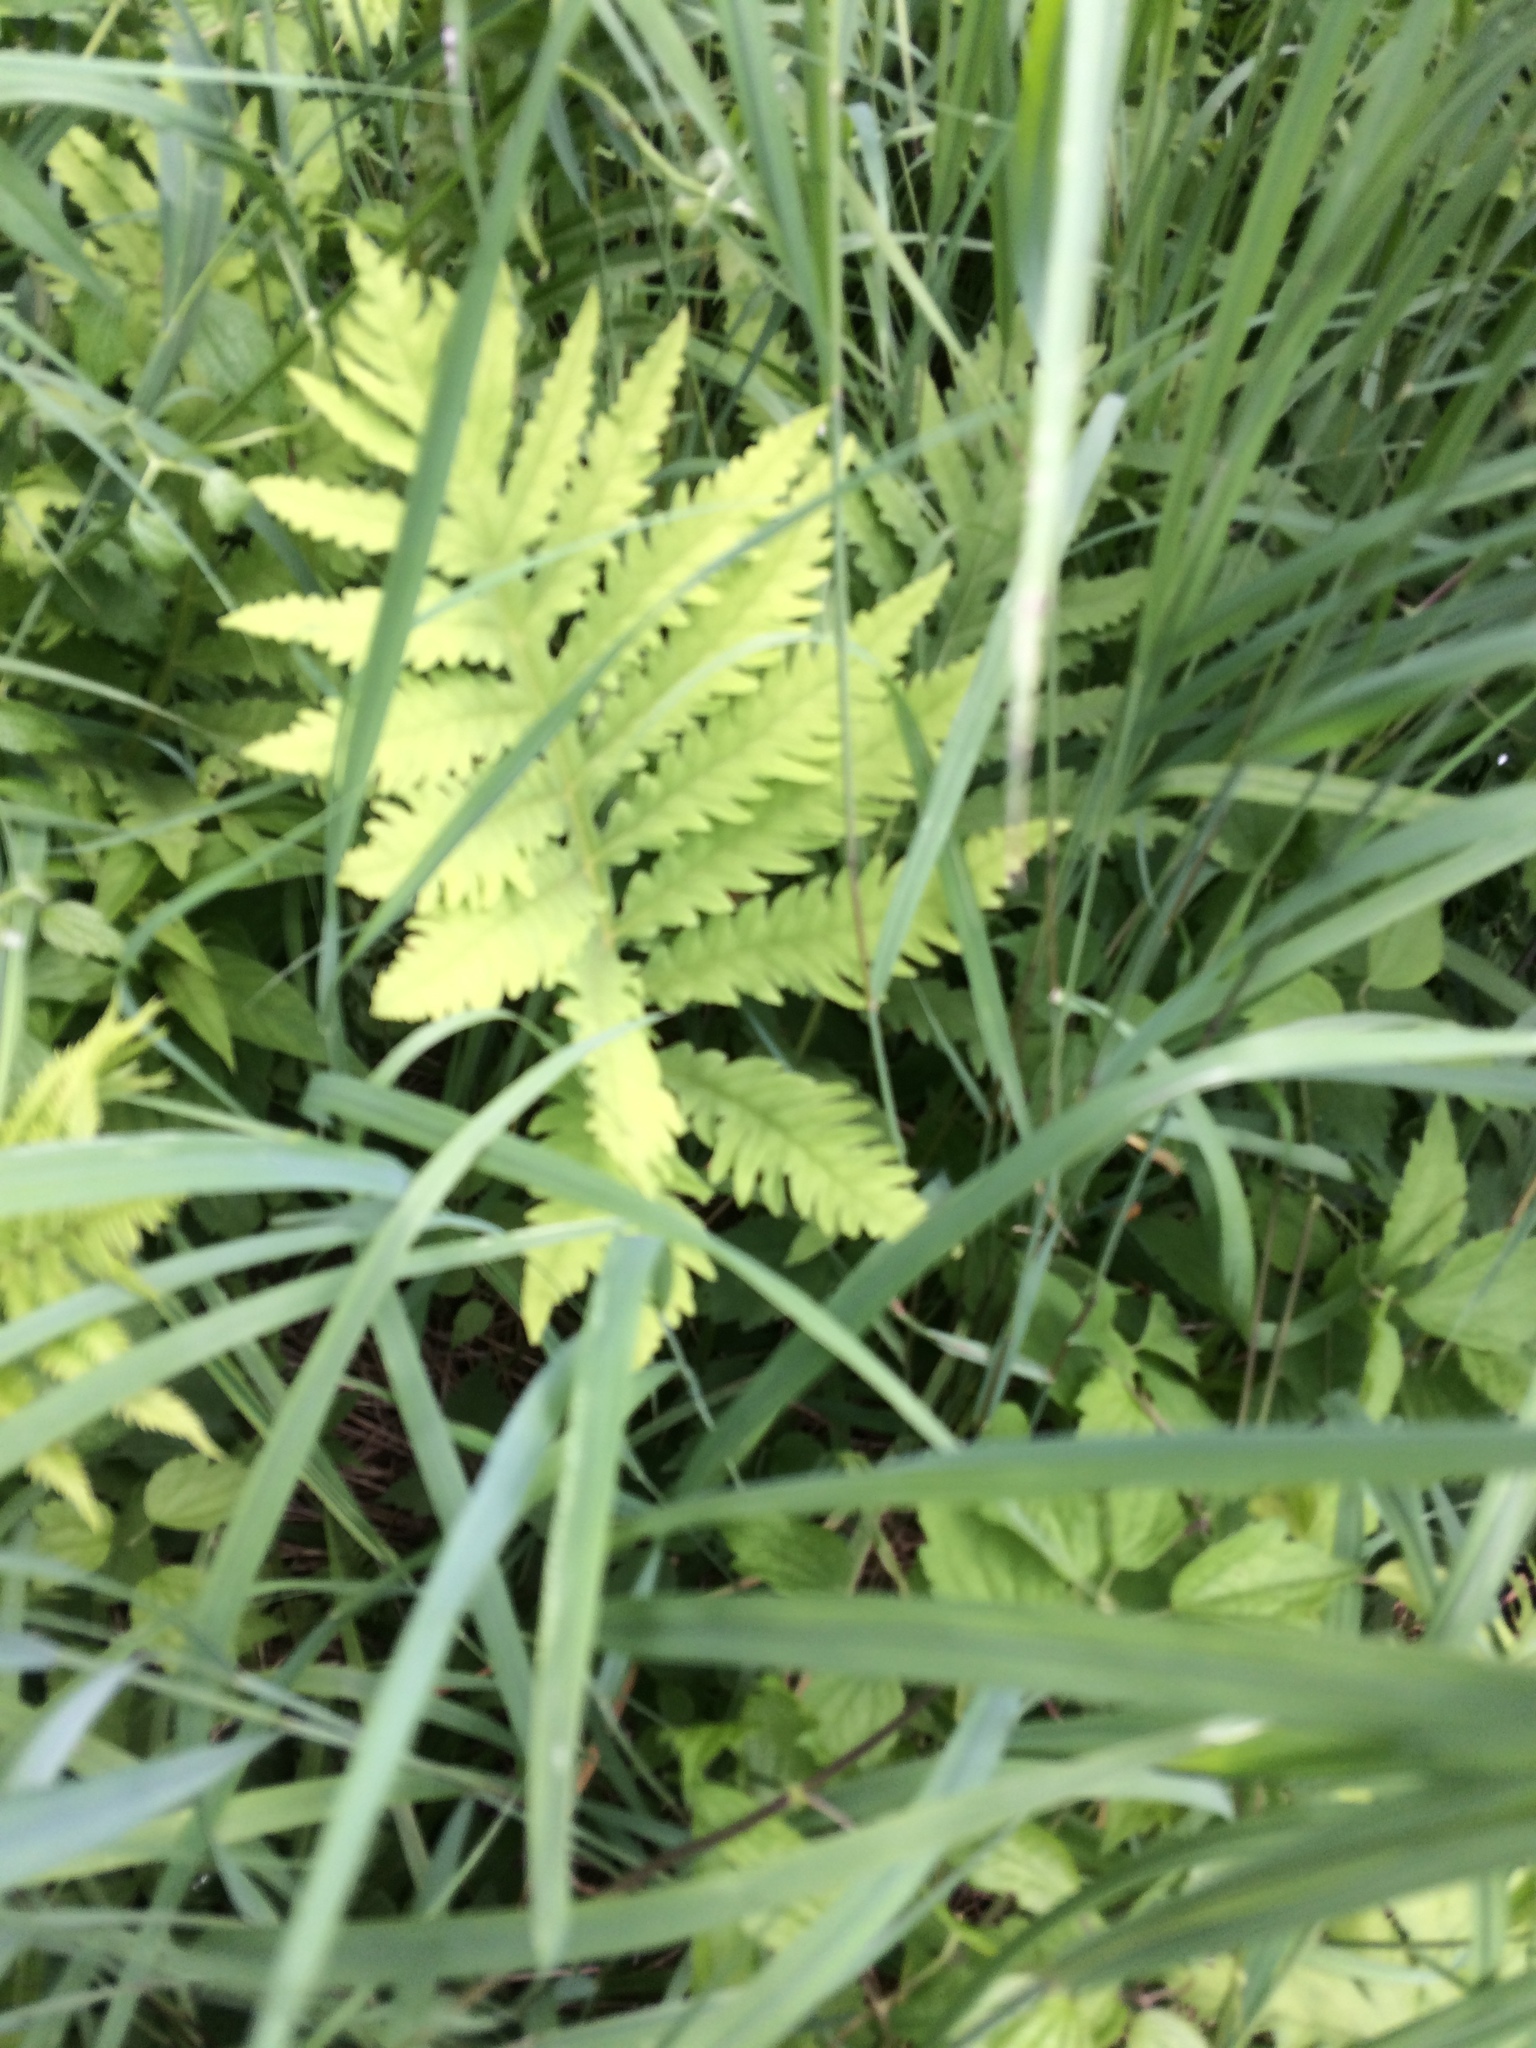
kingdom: Plantae
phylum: Tracheophyta
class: Polypodiopsida
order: Polypodiales
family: Onocleaceae
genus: Onoclea
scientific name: Onoclea sensibilis
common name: Sensitive fern
